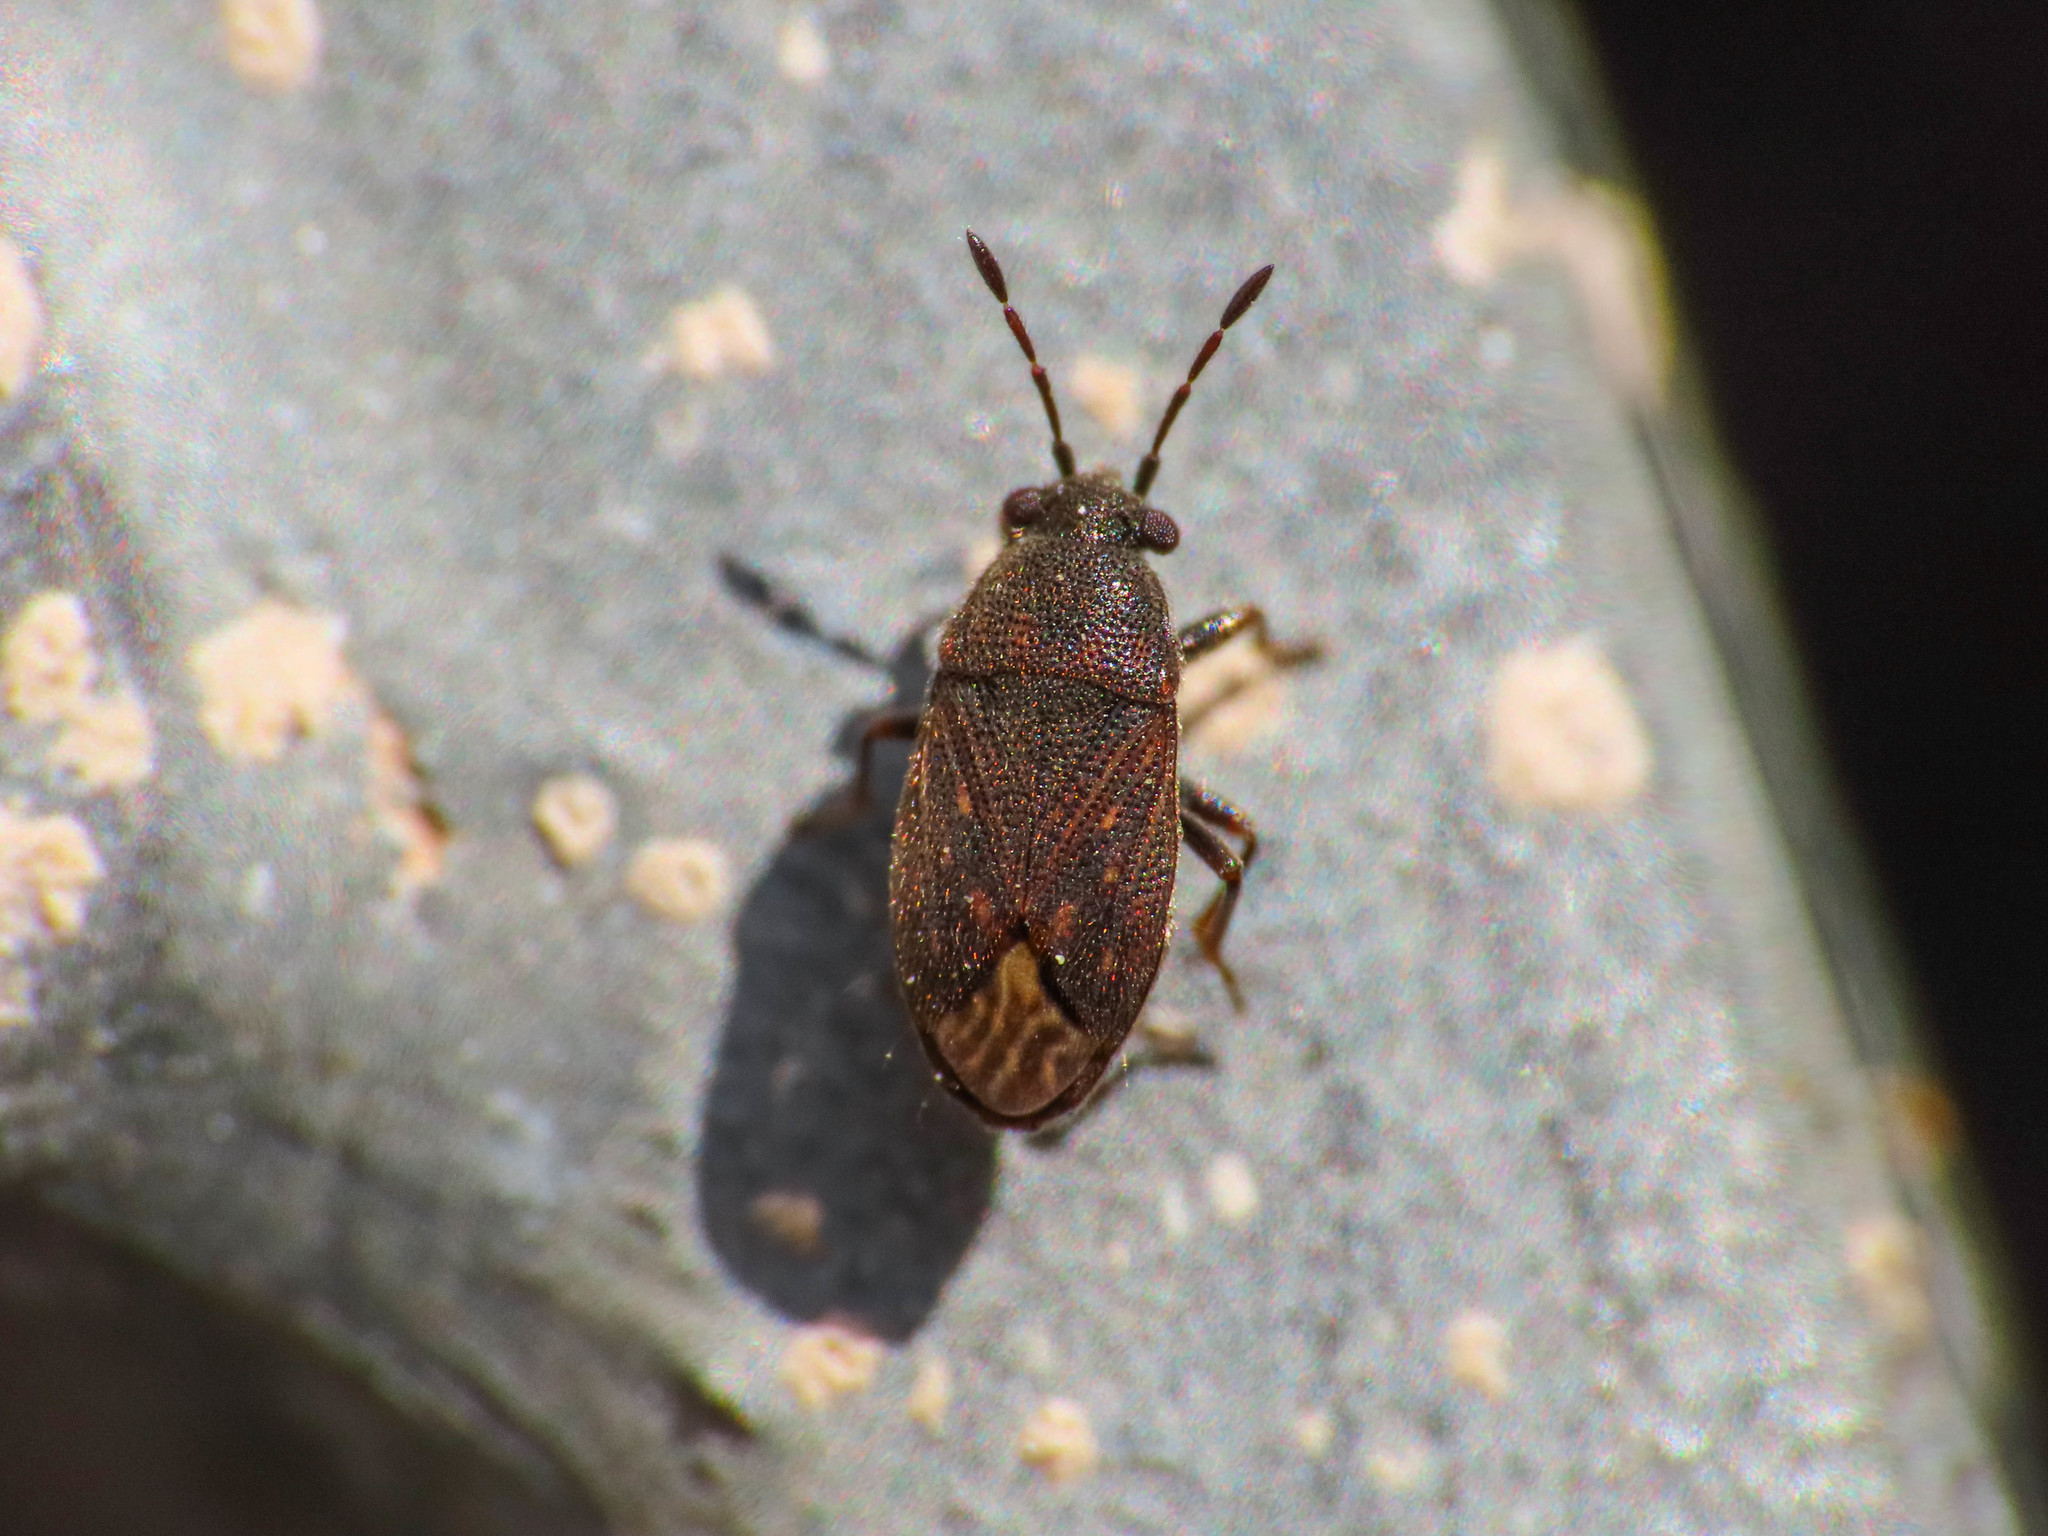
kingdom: Animalia
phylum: Arthropoda
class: Insecta
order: Hemiptera
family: Rhyparochromidae
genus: Stygnocoris
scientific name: Stygnocoris sabulosus
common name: Hairy groundbug
